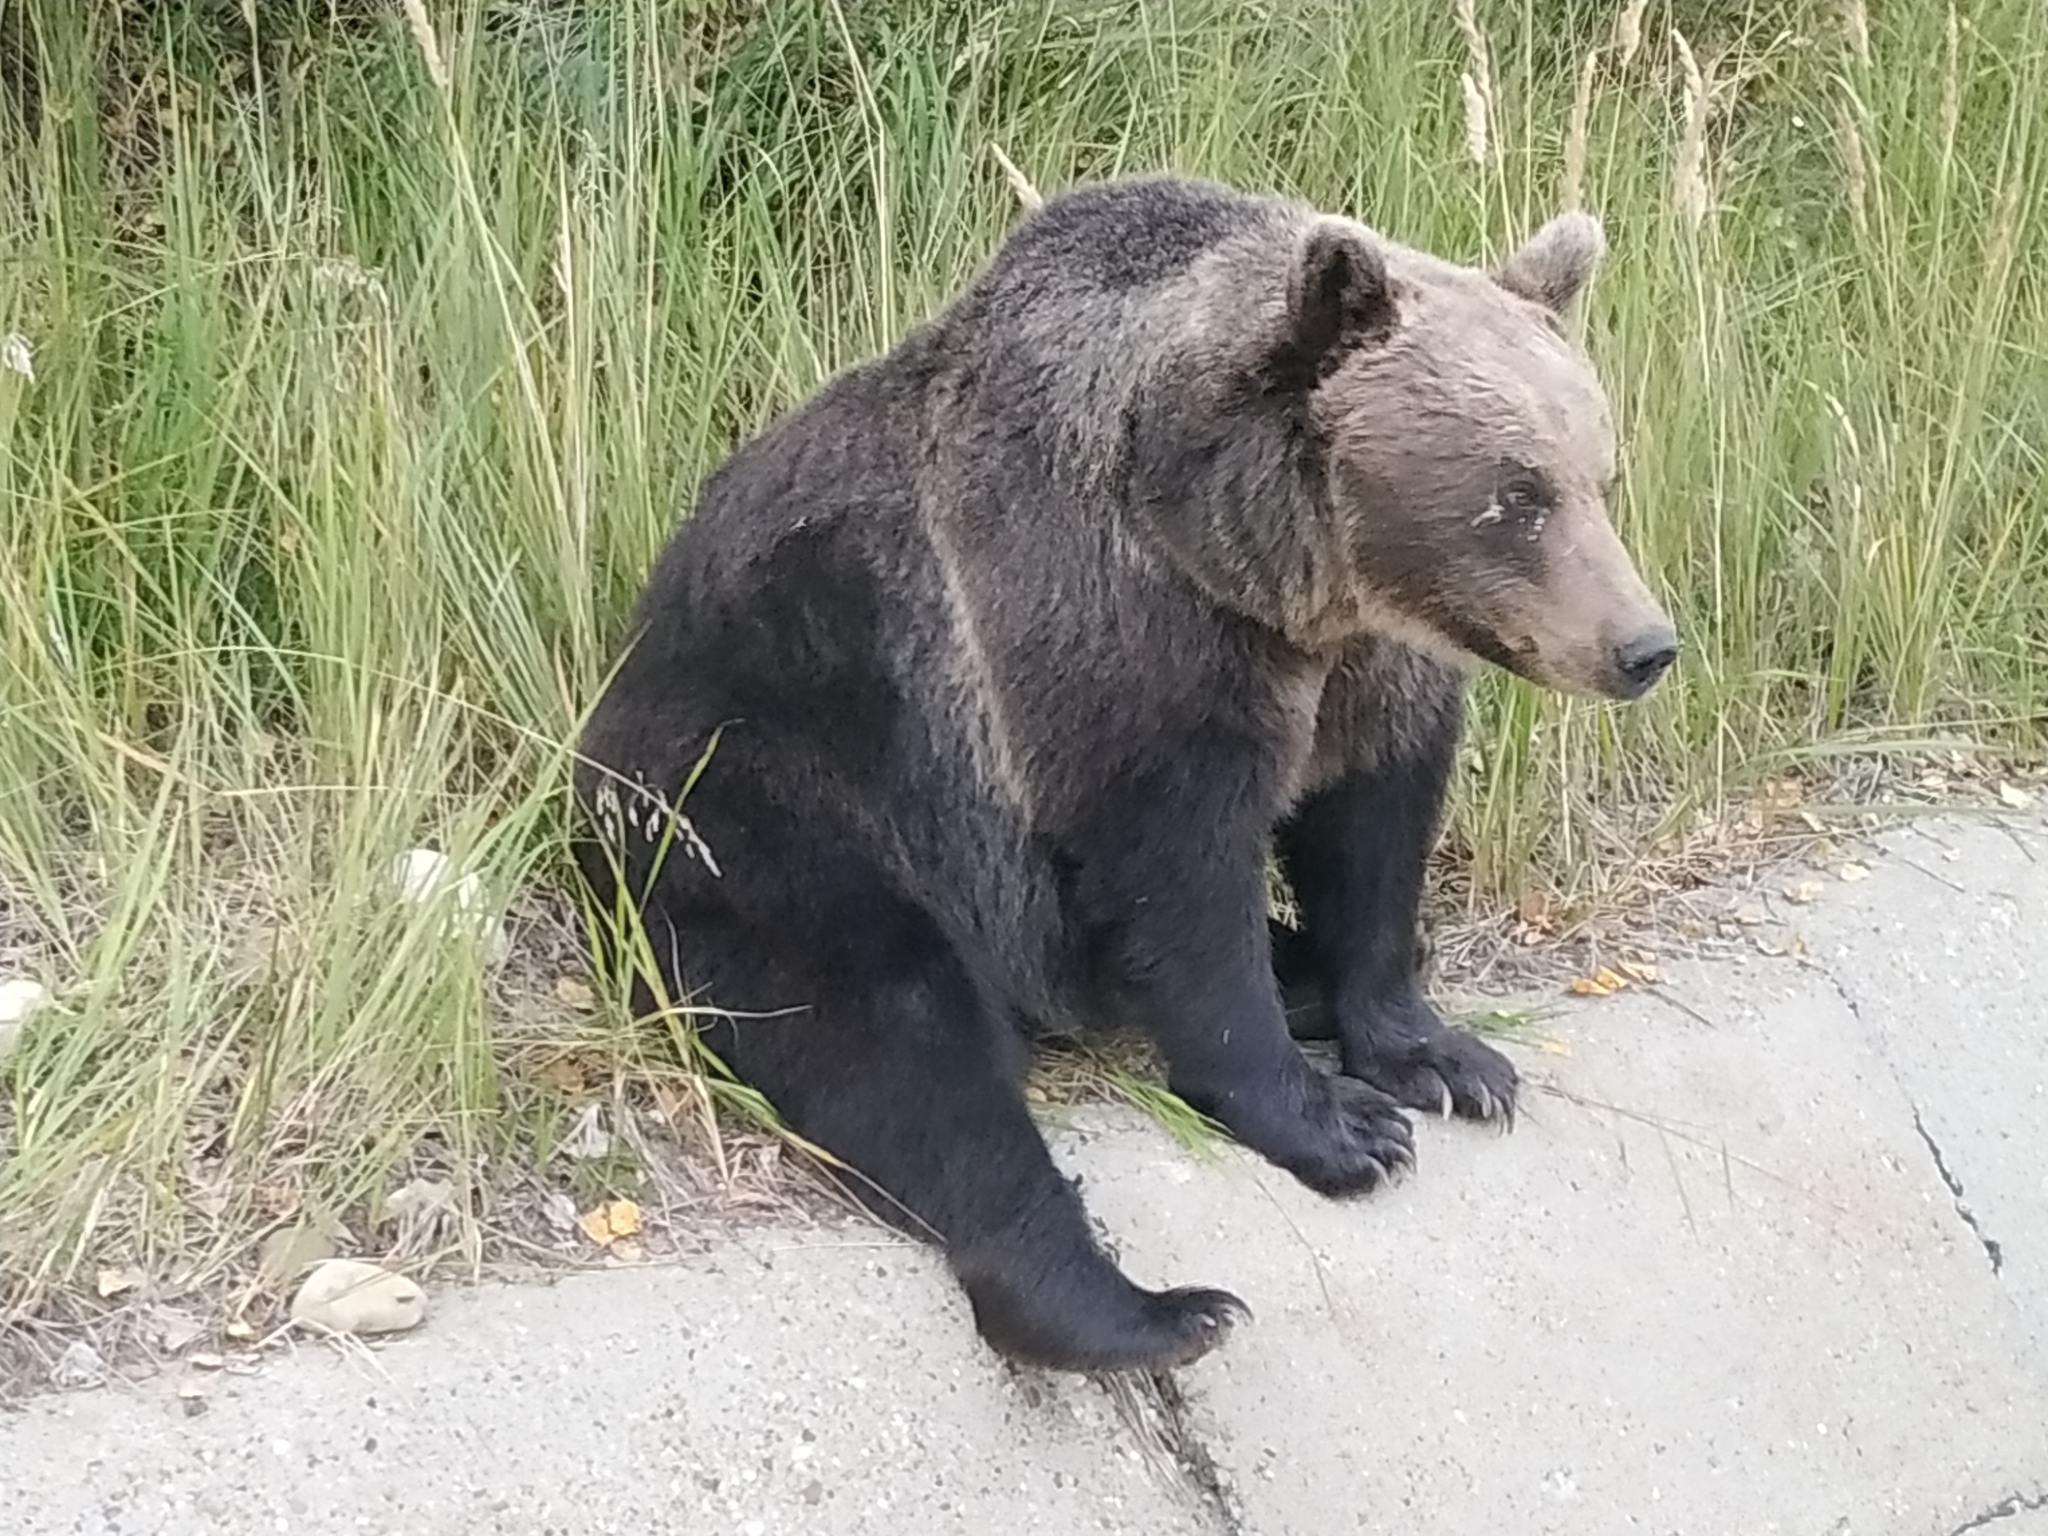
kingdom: Animalia
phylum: Chordata
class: Mammalia
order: Carnivora
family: Ursidae
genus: Ursus
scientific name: Ursus arctos
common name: Brown bear
